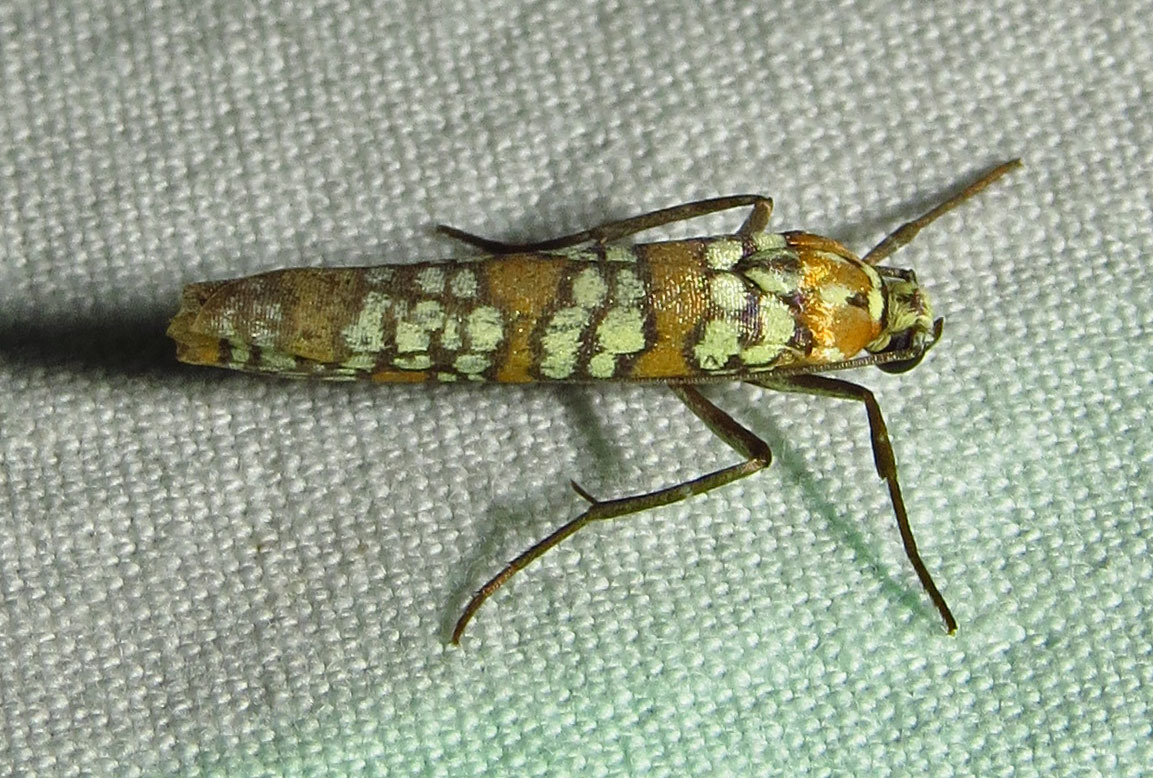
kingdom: Animalia
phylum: Arthropoda
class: Insecta
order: Lepidoptera
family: Attevidae
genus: Atteva
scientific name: Atteva punctella
